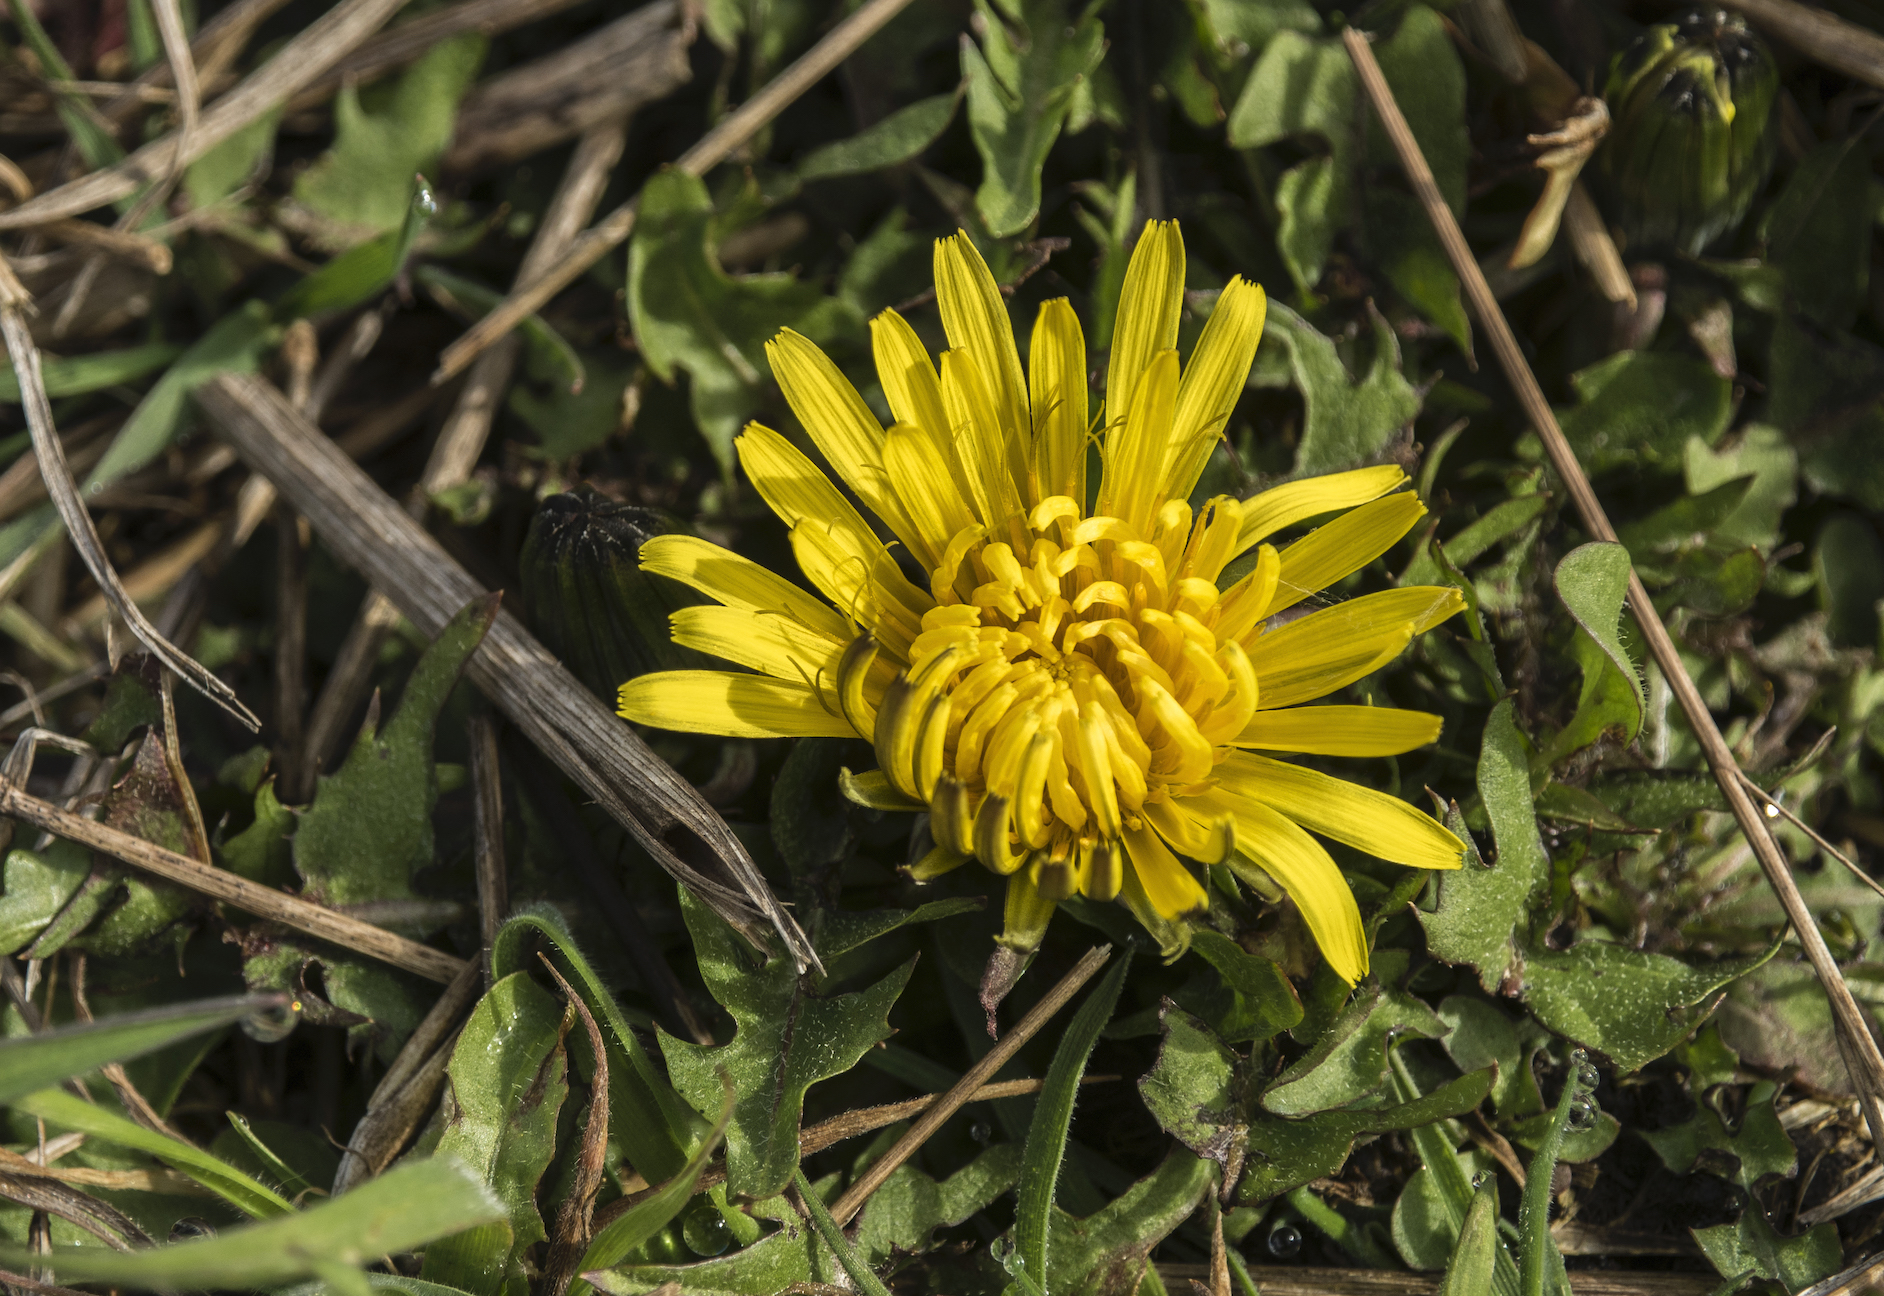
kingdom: Plantae
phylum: Tracheophyta
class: Magnoliopsida
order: Asterales
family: Asteraceae
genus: Taraxacum
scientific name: Taraxacum officinale
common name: Common dandelion
